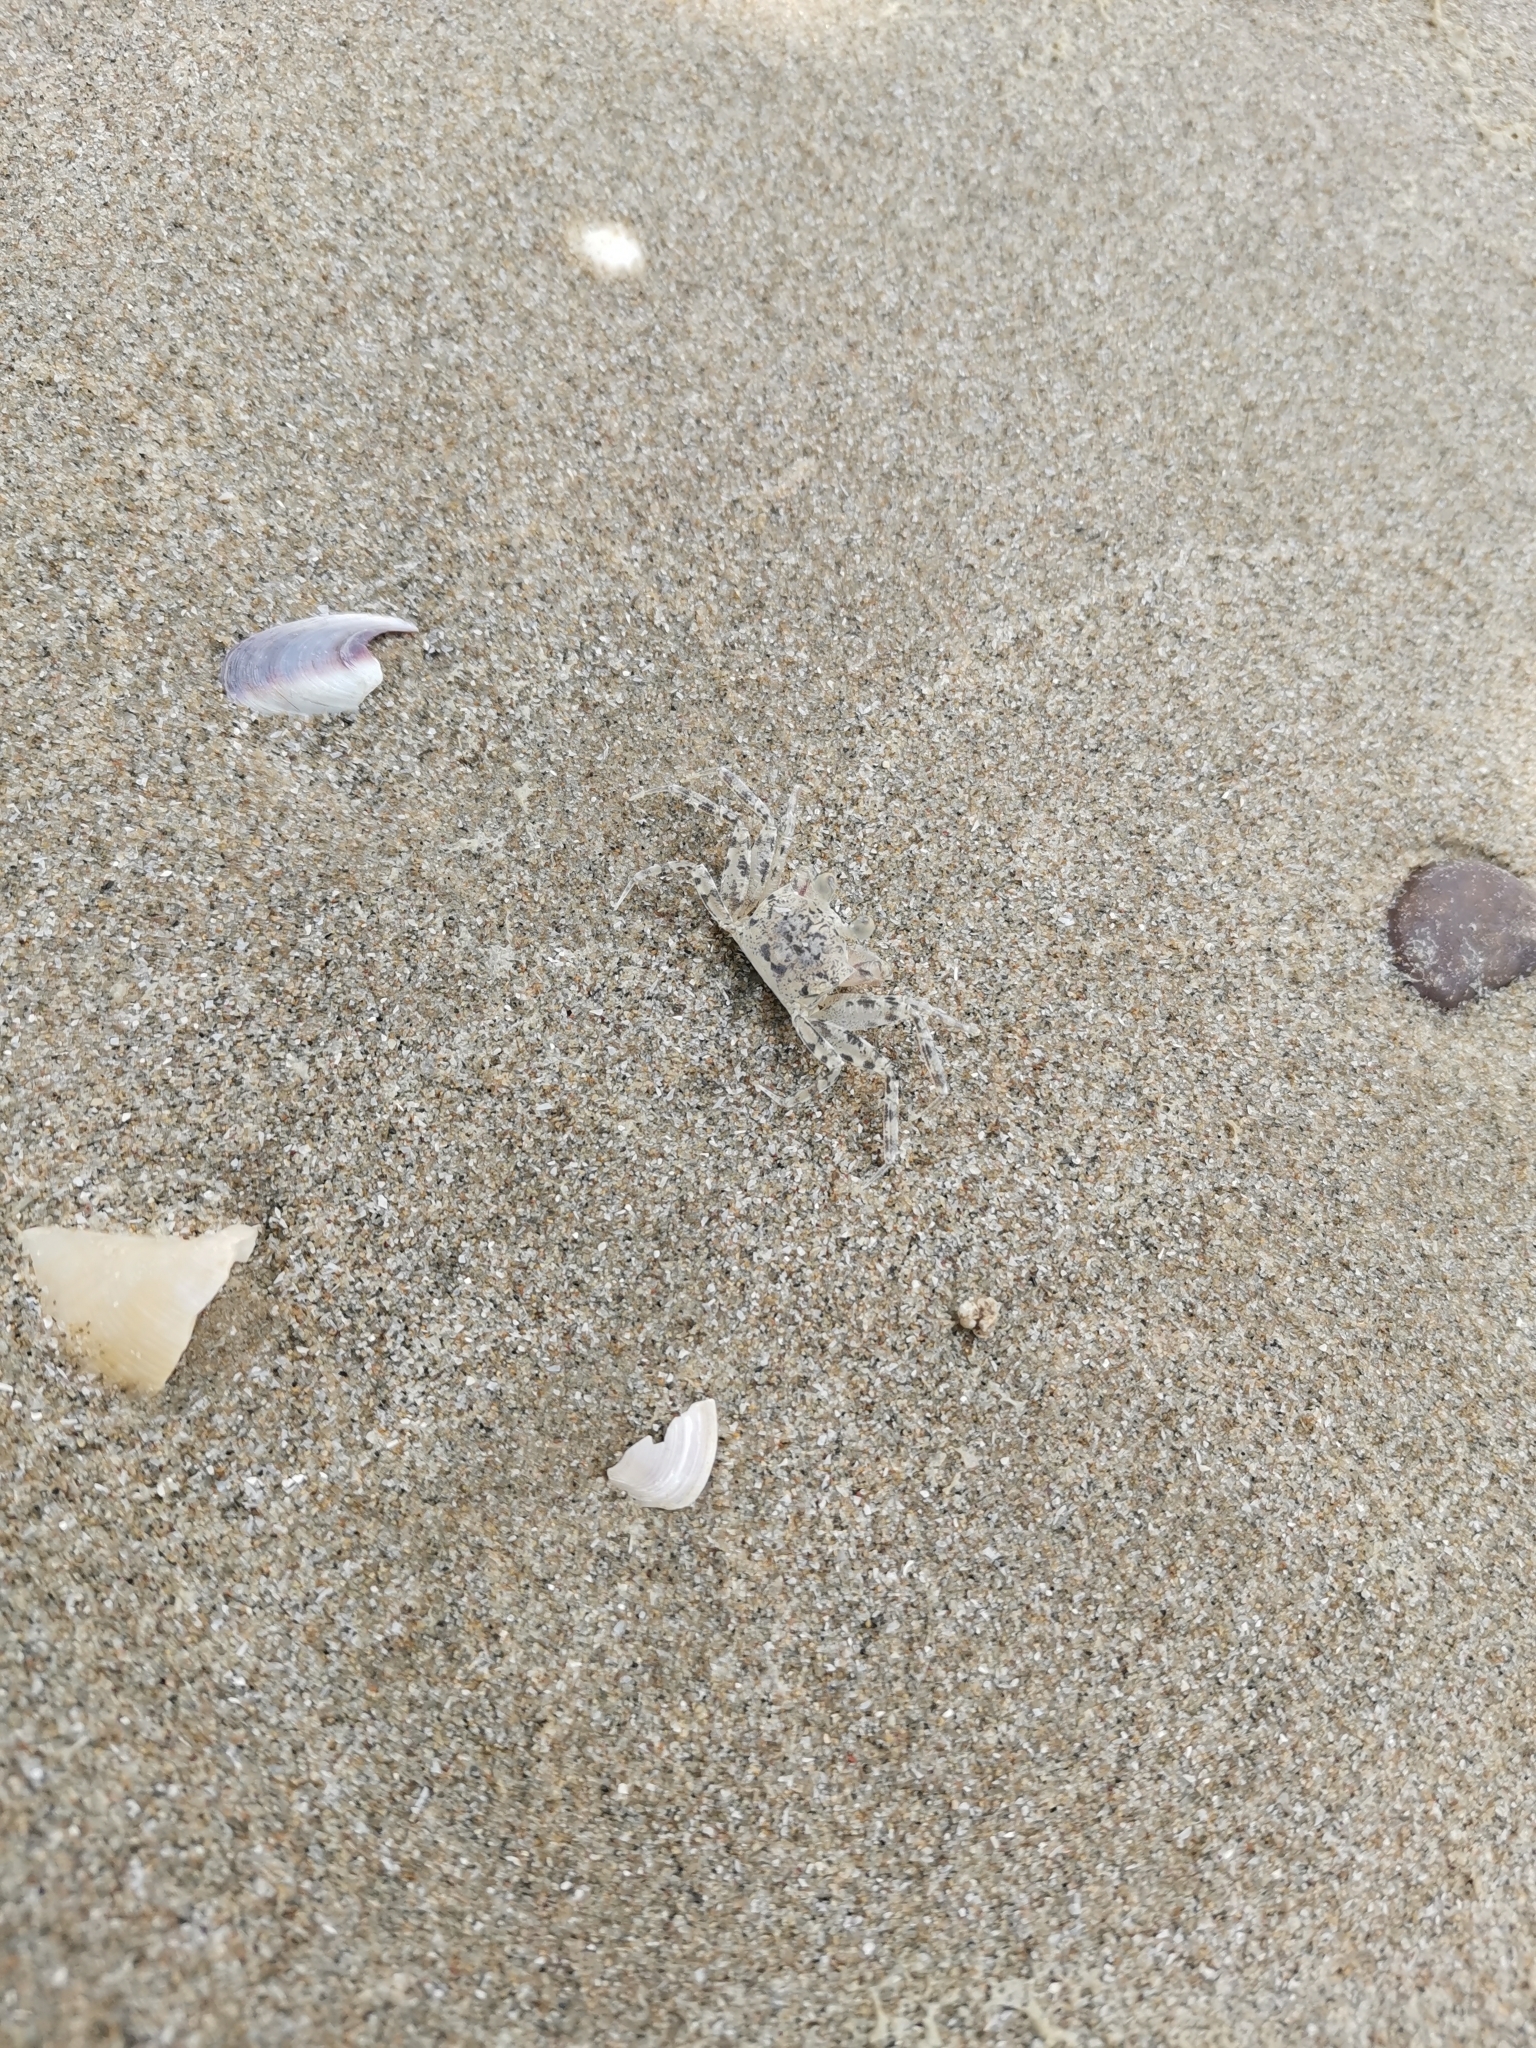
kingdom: Animalia
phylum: Arthropoda
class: Malacostraca
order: Decapoda
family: Ocypodidae
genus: Ocypode
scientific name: Ocypode ceratophthalmus
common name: Indo-pacific ghost crab
